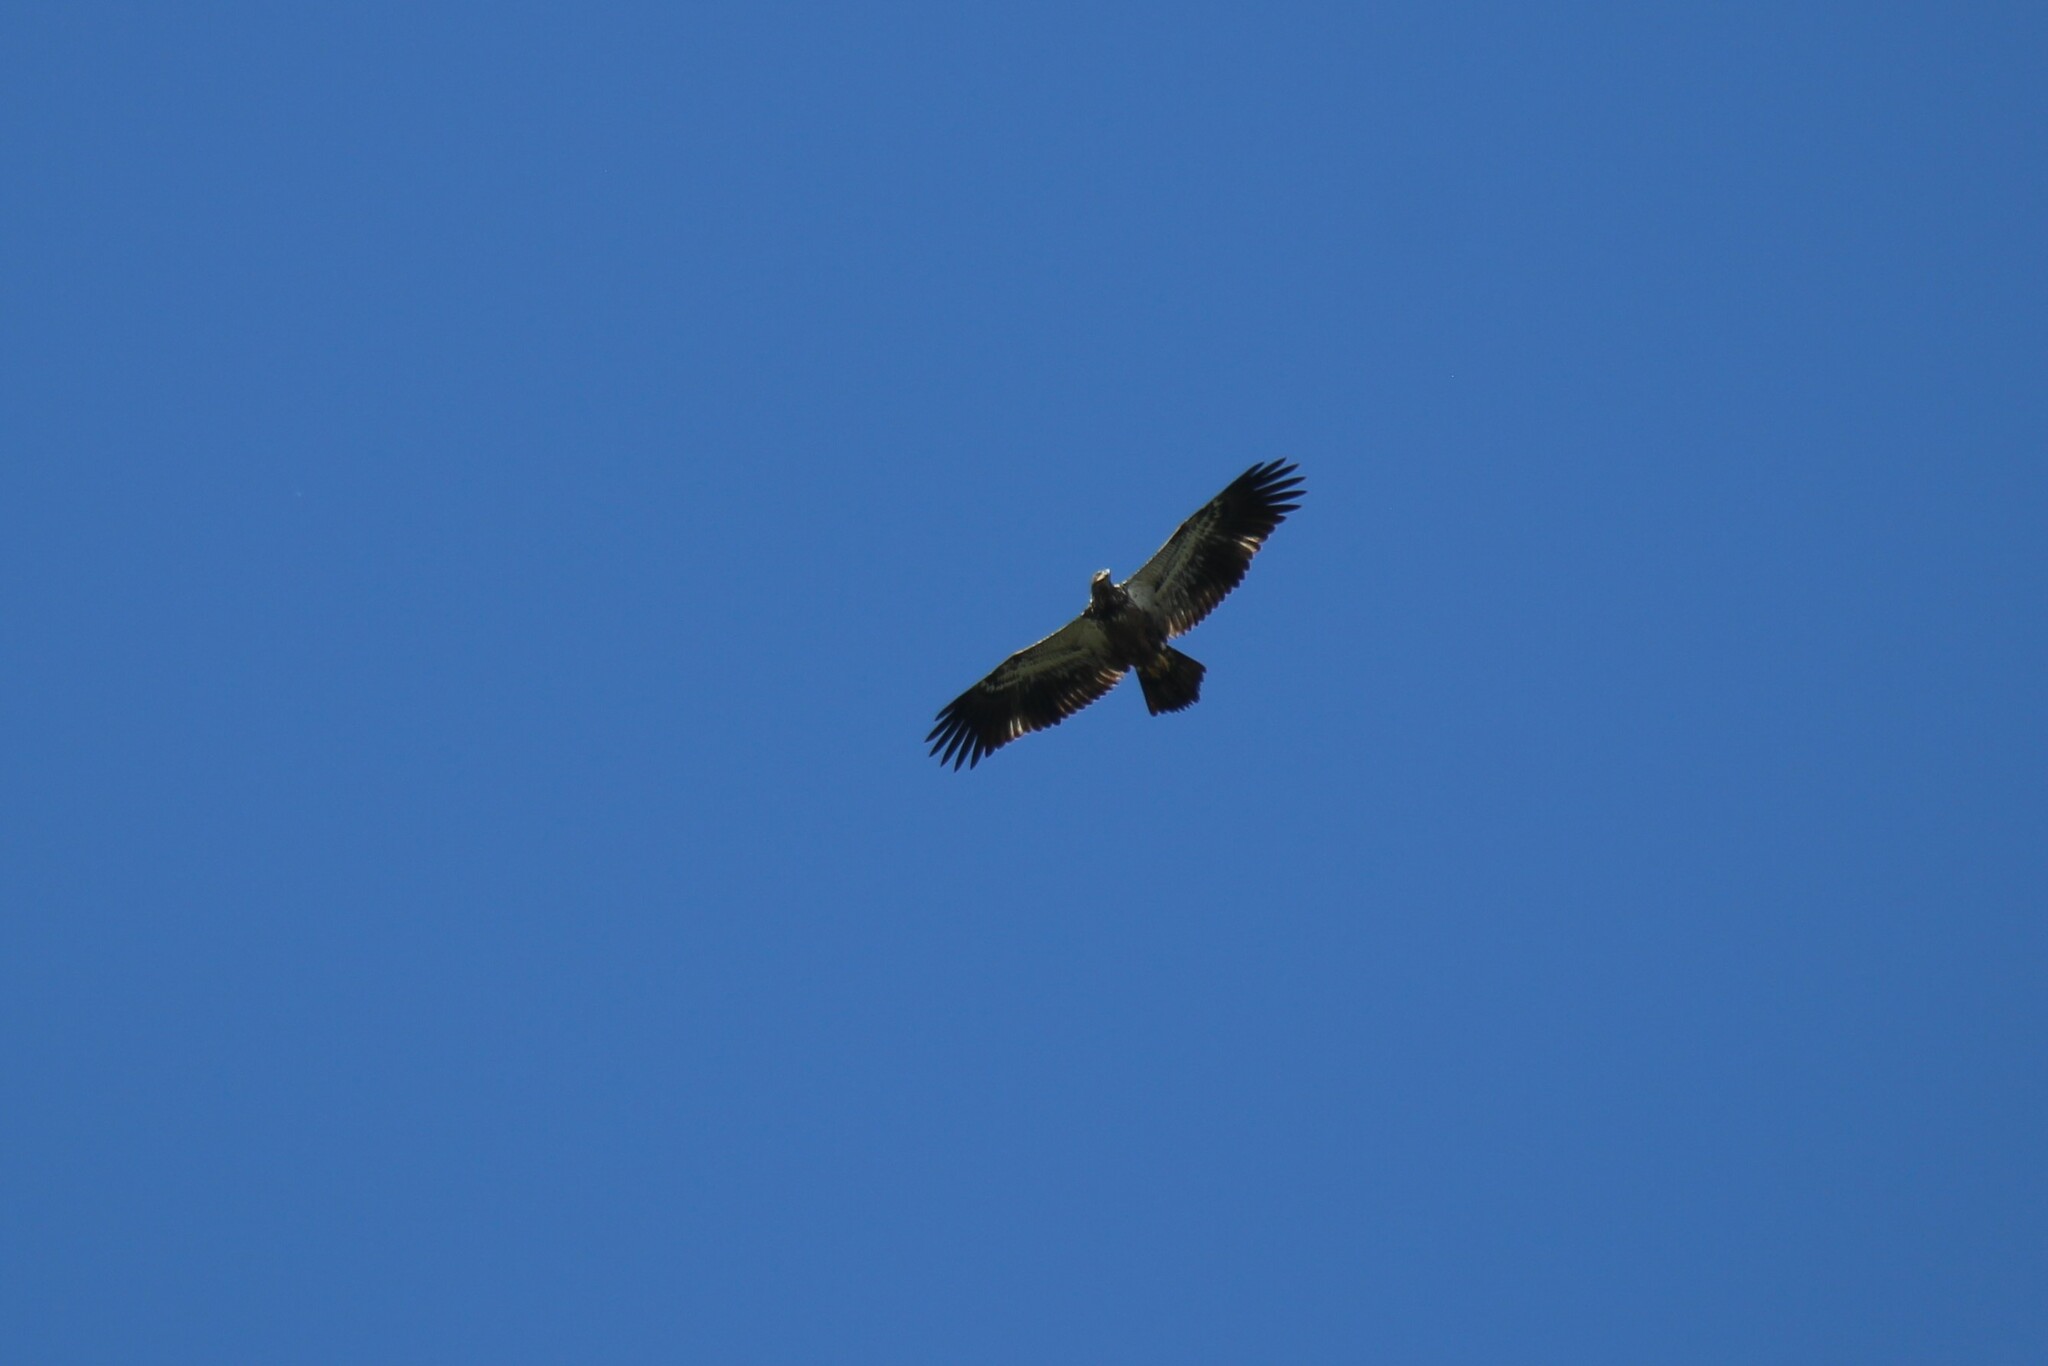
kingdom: Animalia
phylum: Chordata
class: Aves
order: Accipitriformes
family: Accipitridae
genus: Haliaeetus
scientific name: Haliaeetus leucocephalus
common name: Bald eagle
